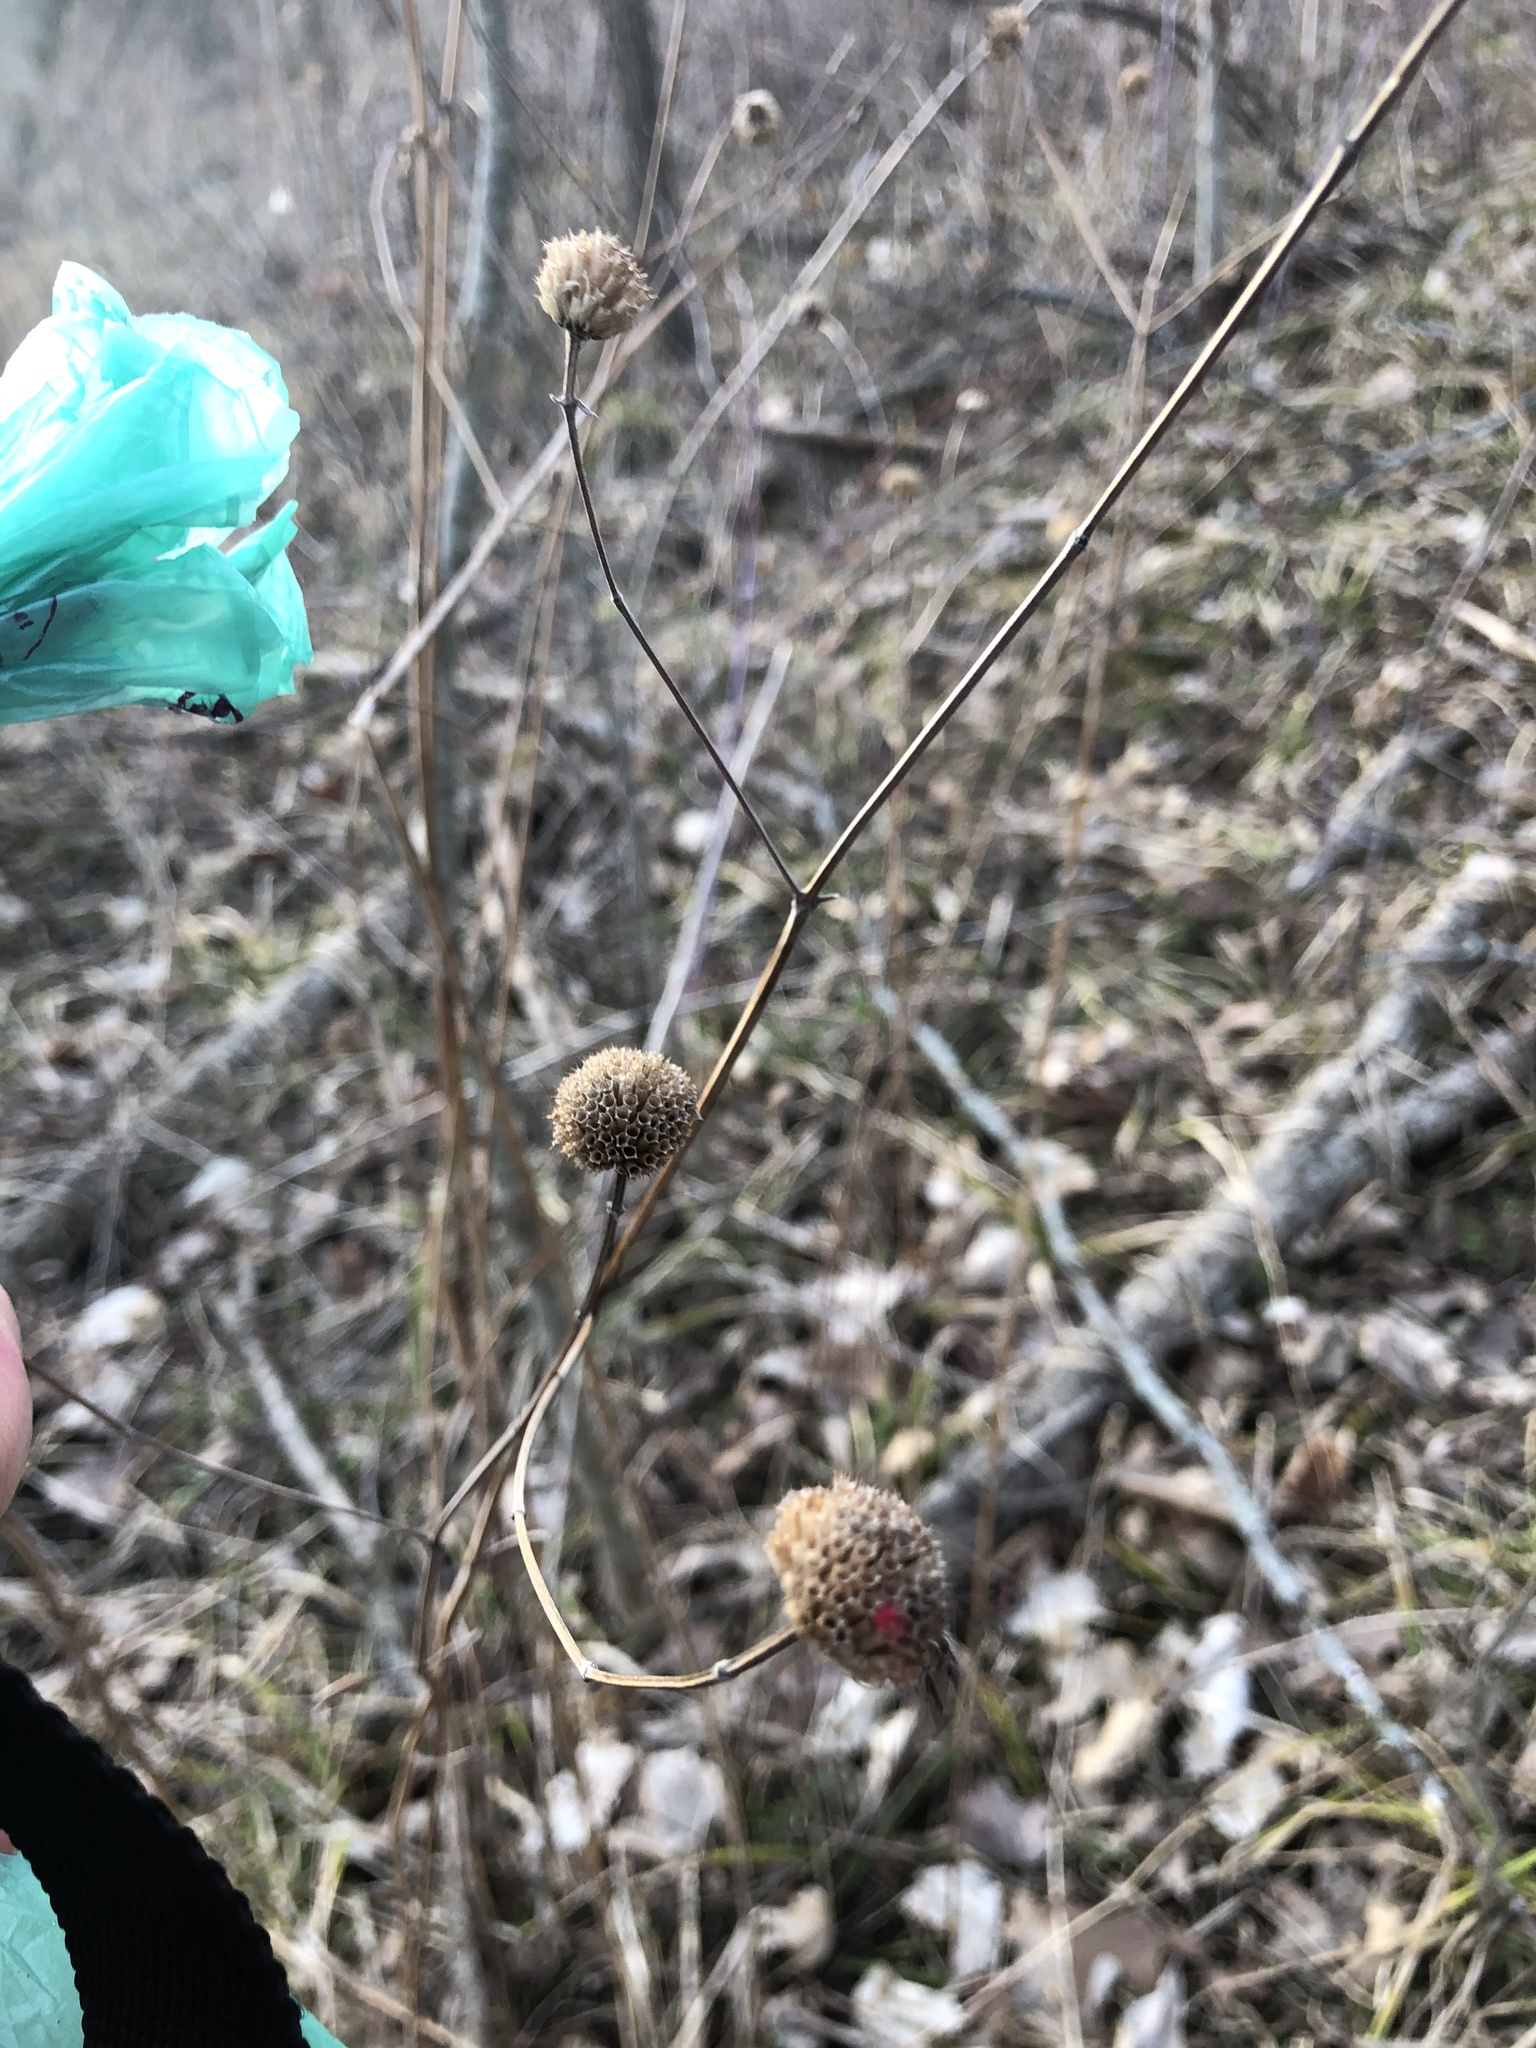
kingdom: Plantae
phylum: Tracheophyta
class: Magnoliopsida
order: Lamiales
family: Lamiaceae
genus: Monarda
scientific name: Monarda fistulosa
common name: Purple beebalm
